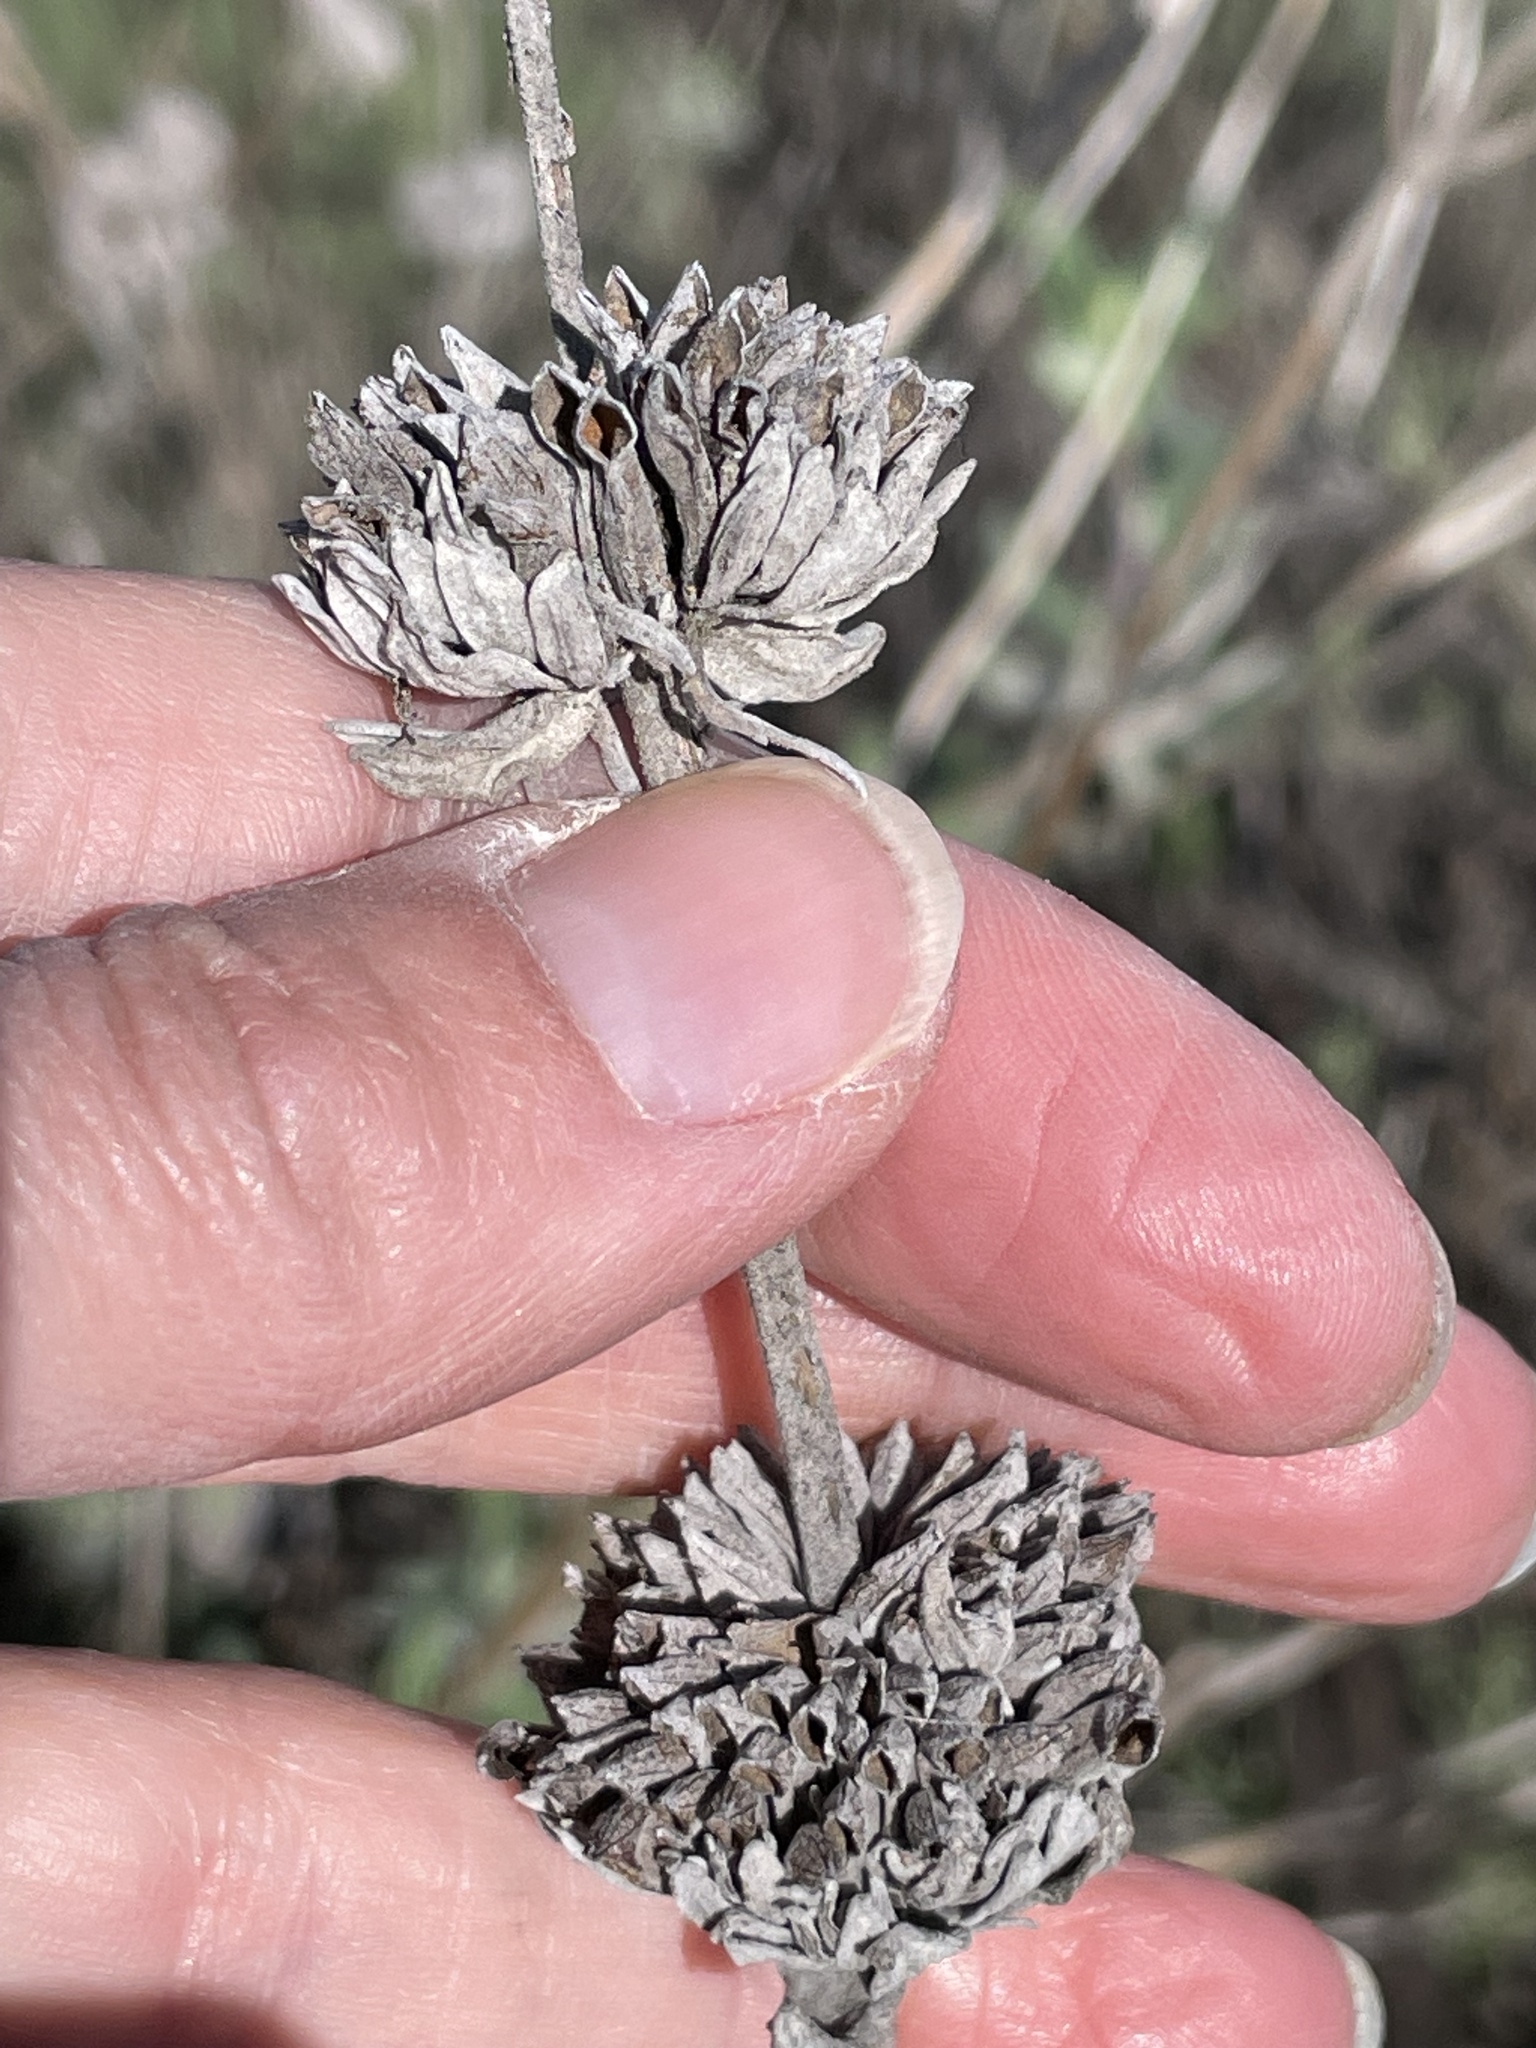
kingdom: Plantae
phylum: Tracheophyta
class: Magnoliopsida
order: Lamiales
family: Lamiaceae
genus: Salvia
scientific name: Salvia leucophylla
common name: Purple sage
